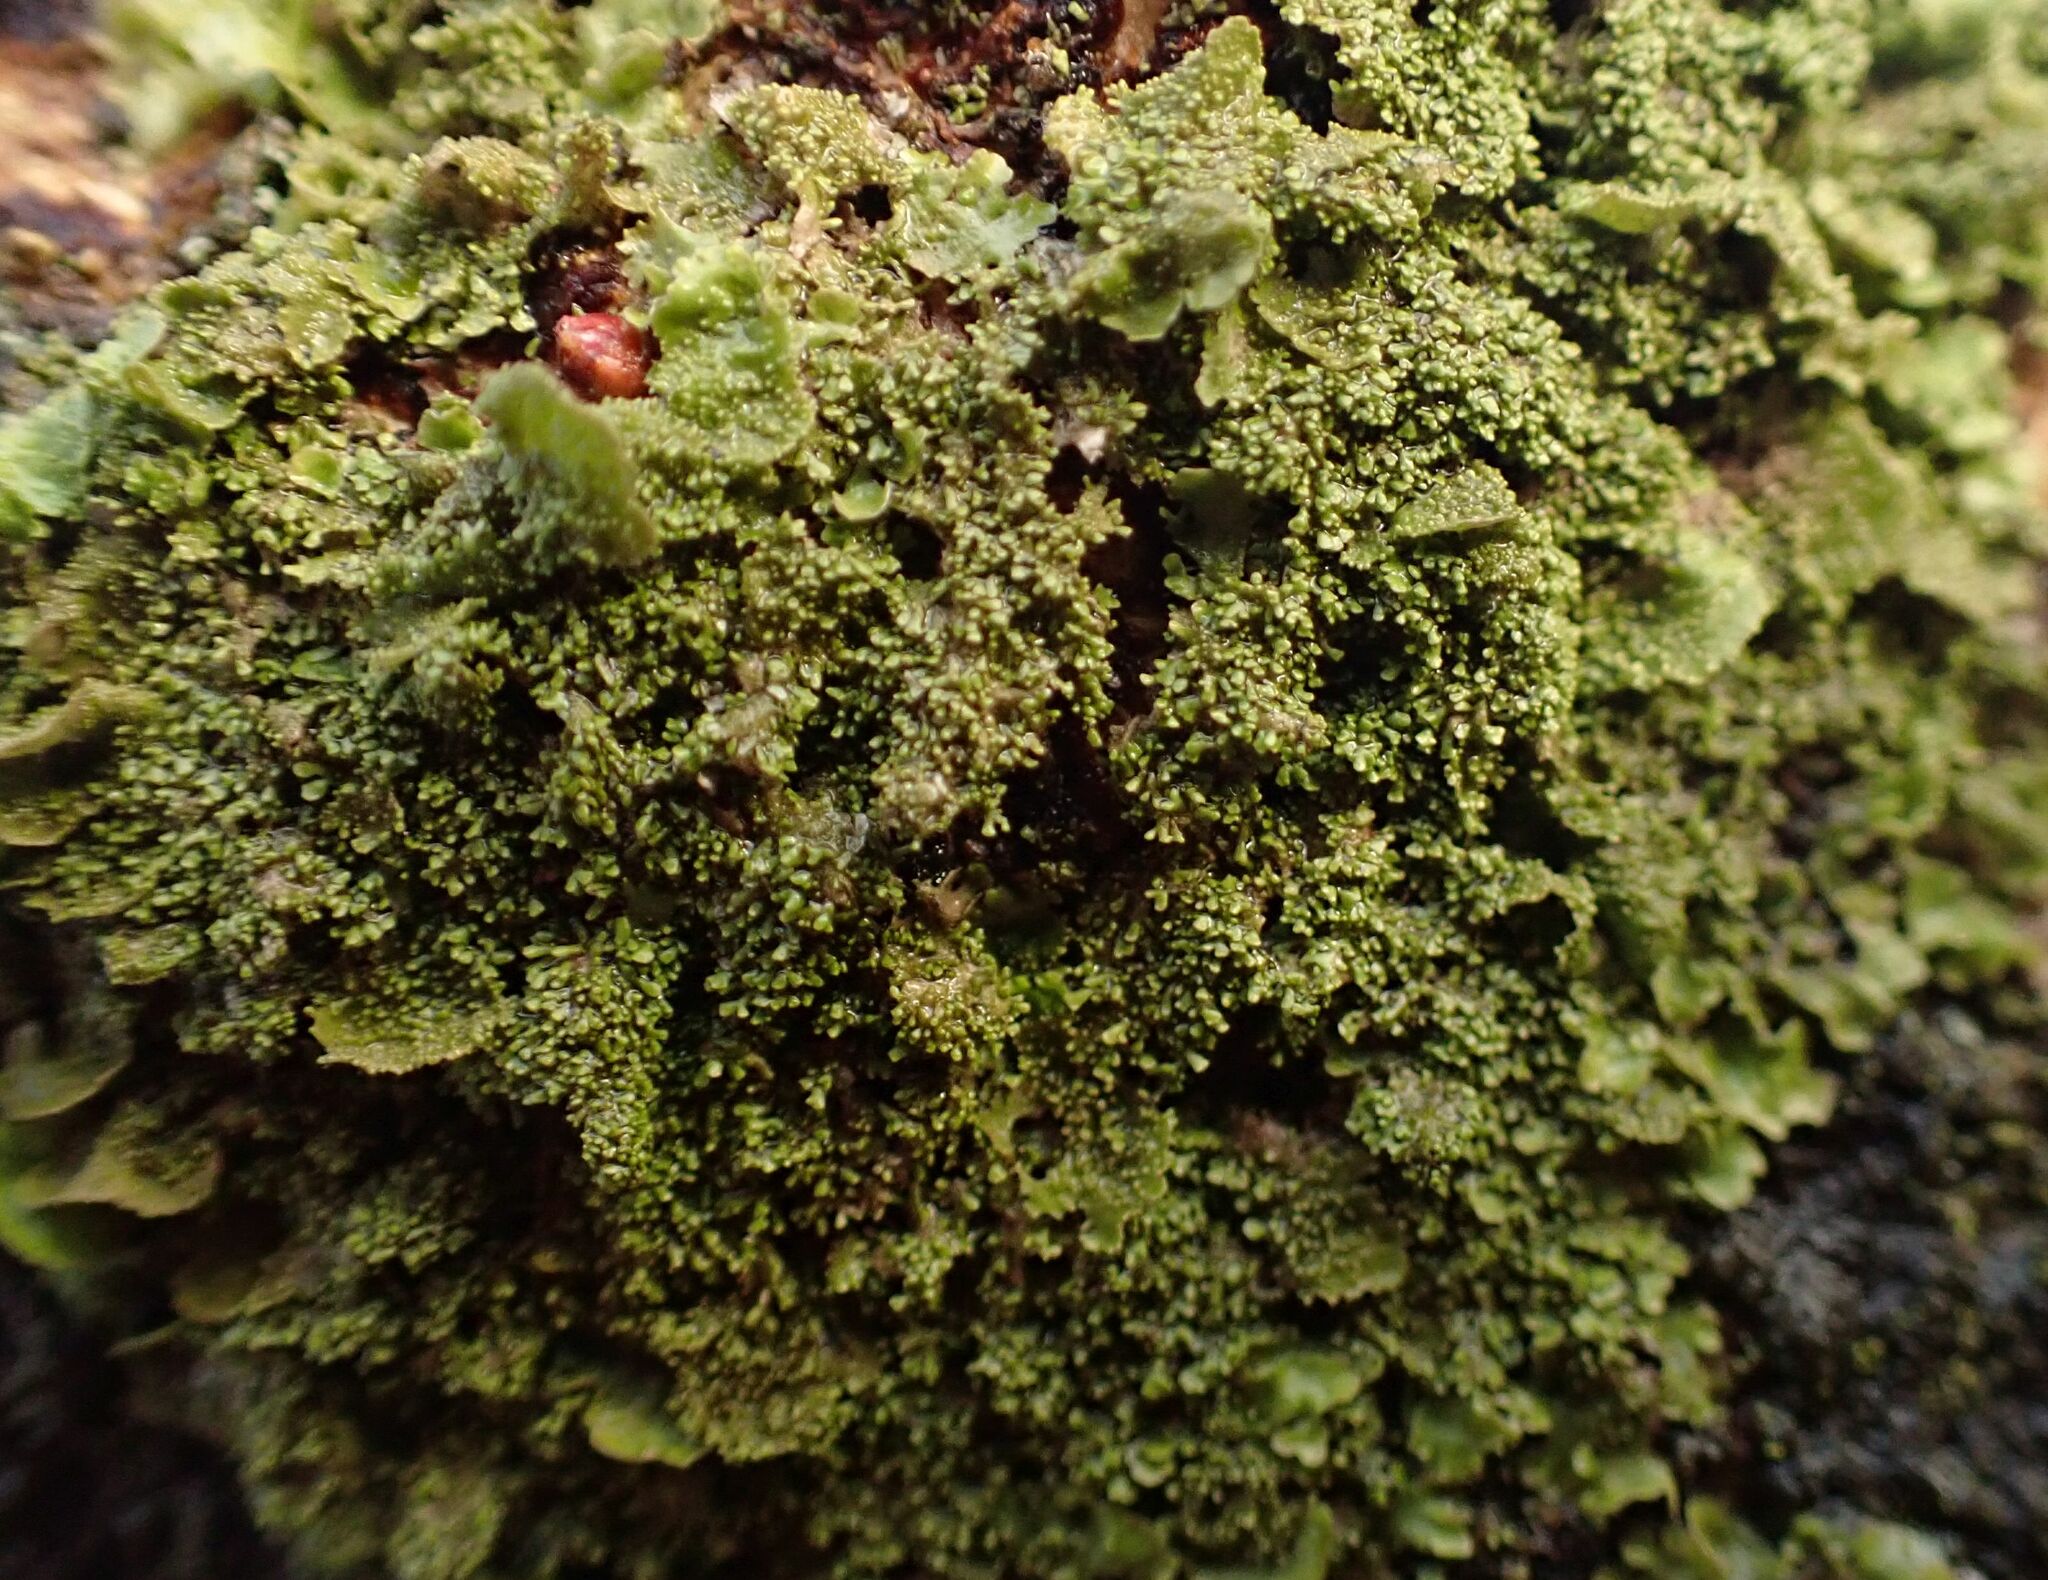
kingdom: Fungi
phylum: Ascomycota
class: Lecanoromycetes
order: Lecanorales
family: Parmeliaceae
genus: Melanohalea
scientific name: Melanohalea exasperatula
